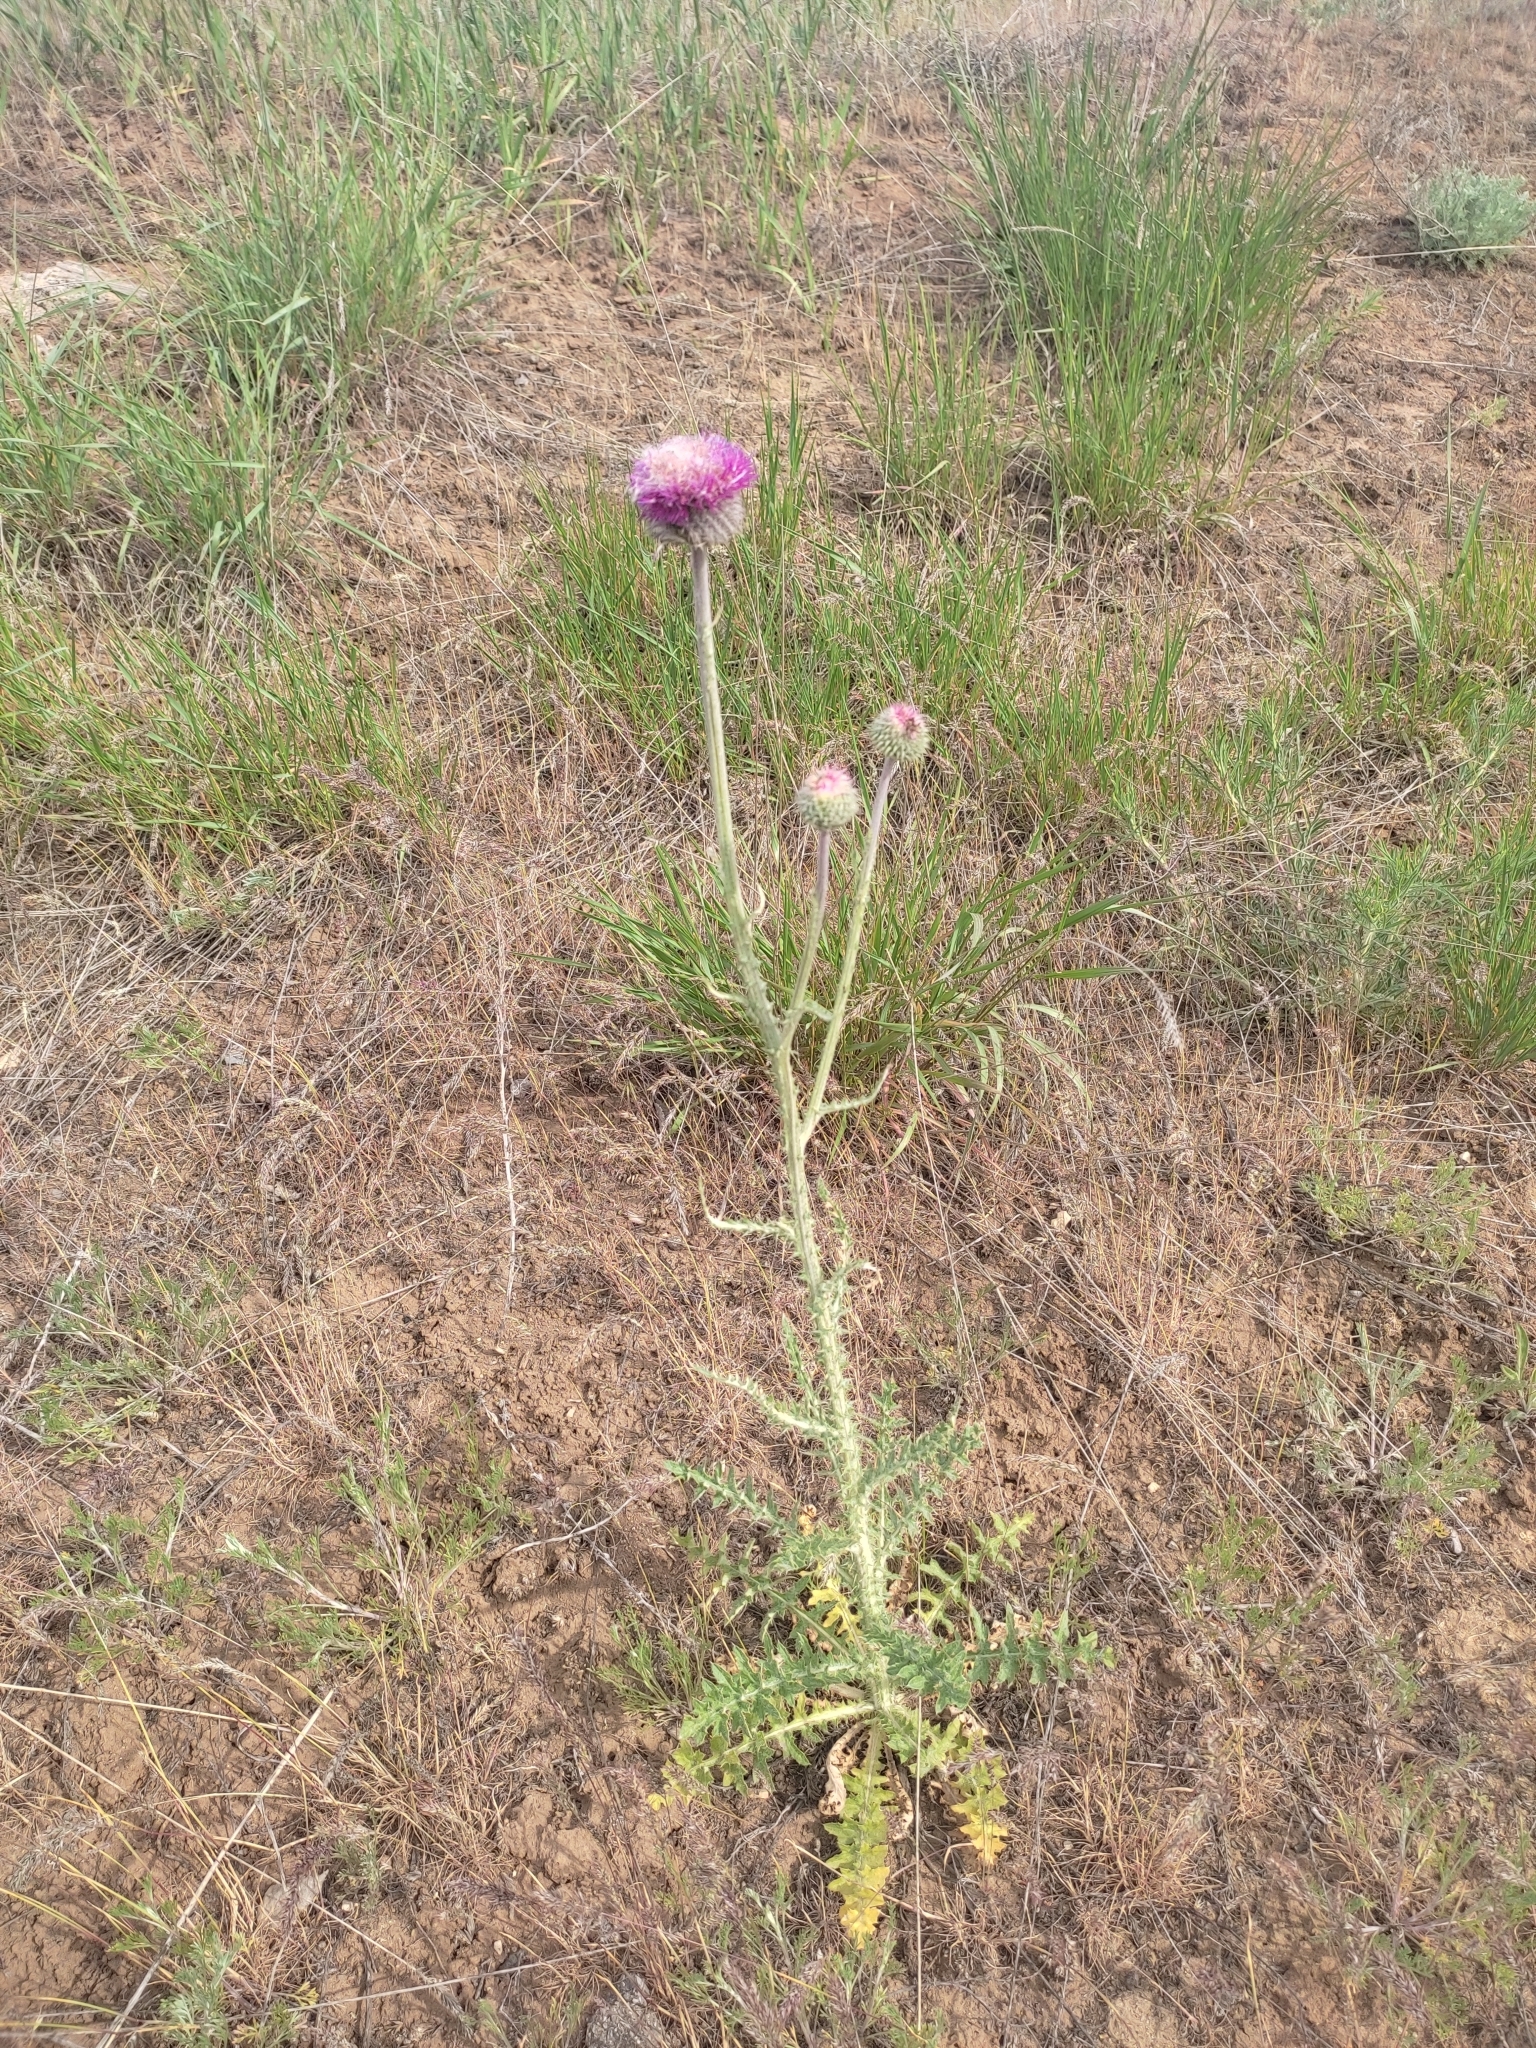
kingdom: Plantae
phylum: Tracheophyta
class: Magnoliopsida
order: Asterales
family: Asteraceae
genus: Carduus
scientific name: Carduus uncinatus
